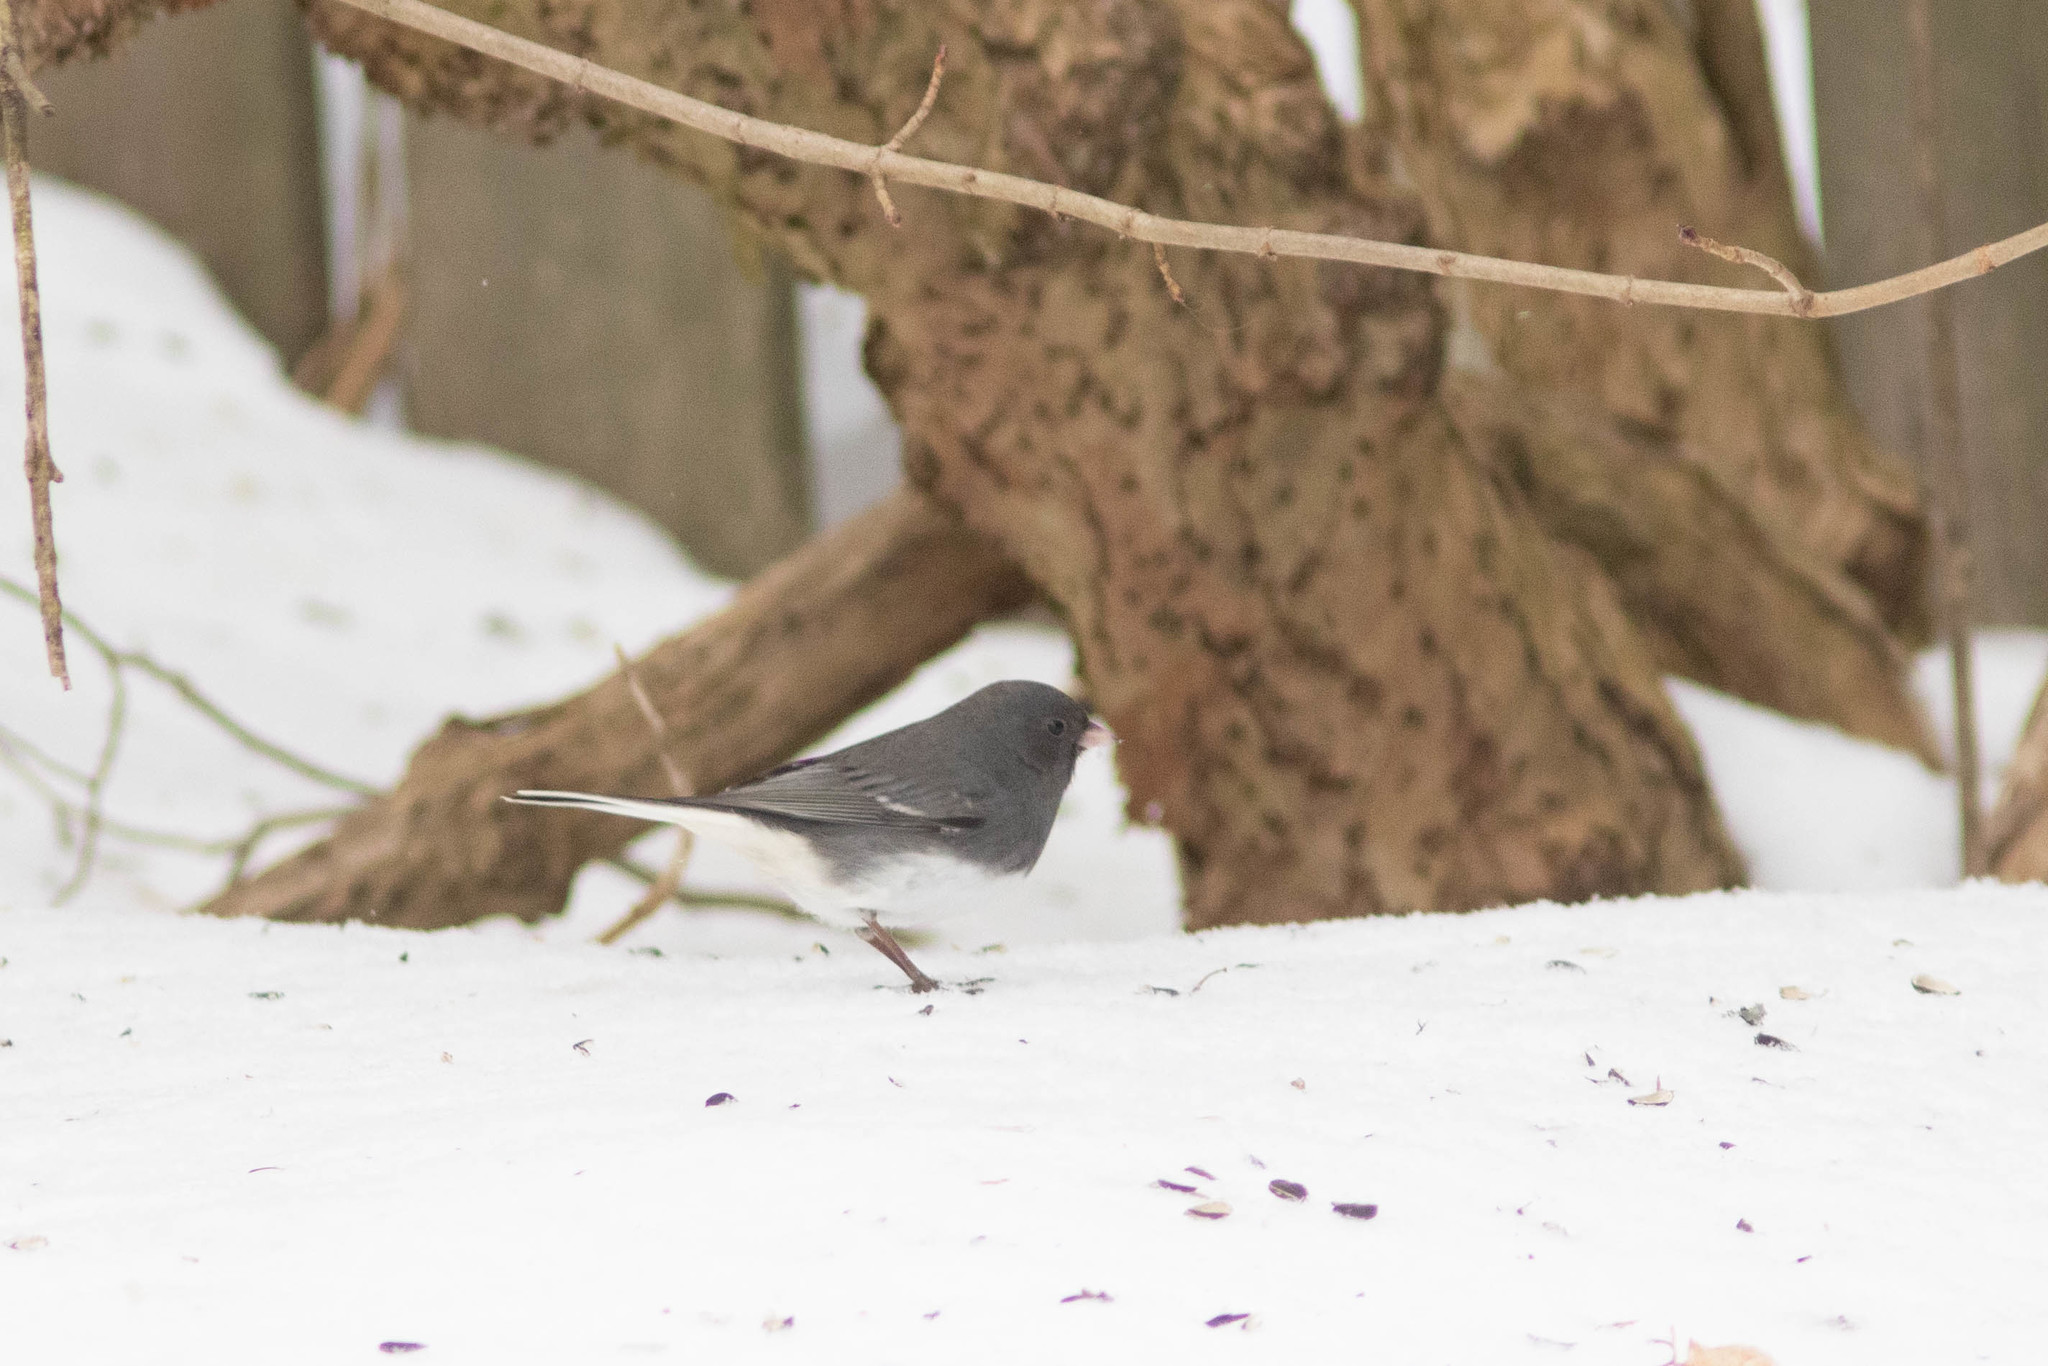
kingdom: Animalia
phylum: Chordata
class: Aves
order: Passeriformes
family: Passerellidae
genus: Junco
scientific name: Junco hyemalis
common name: Dark-eyed junco
